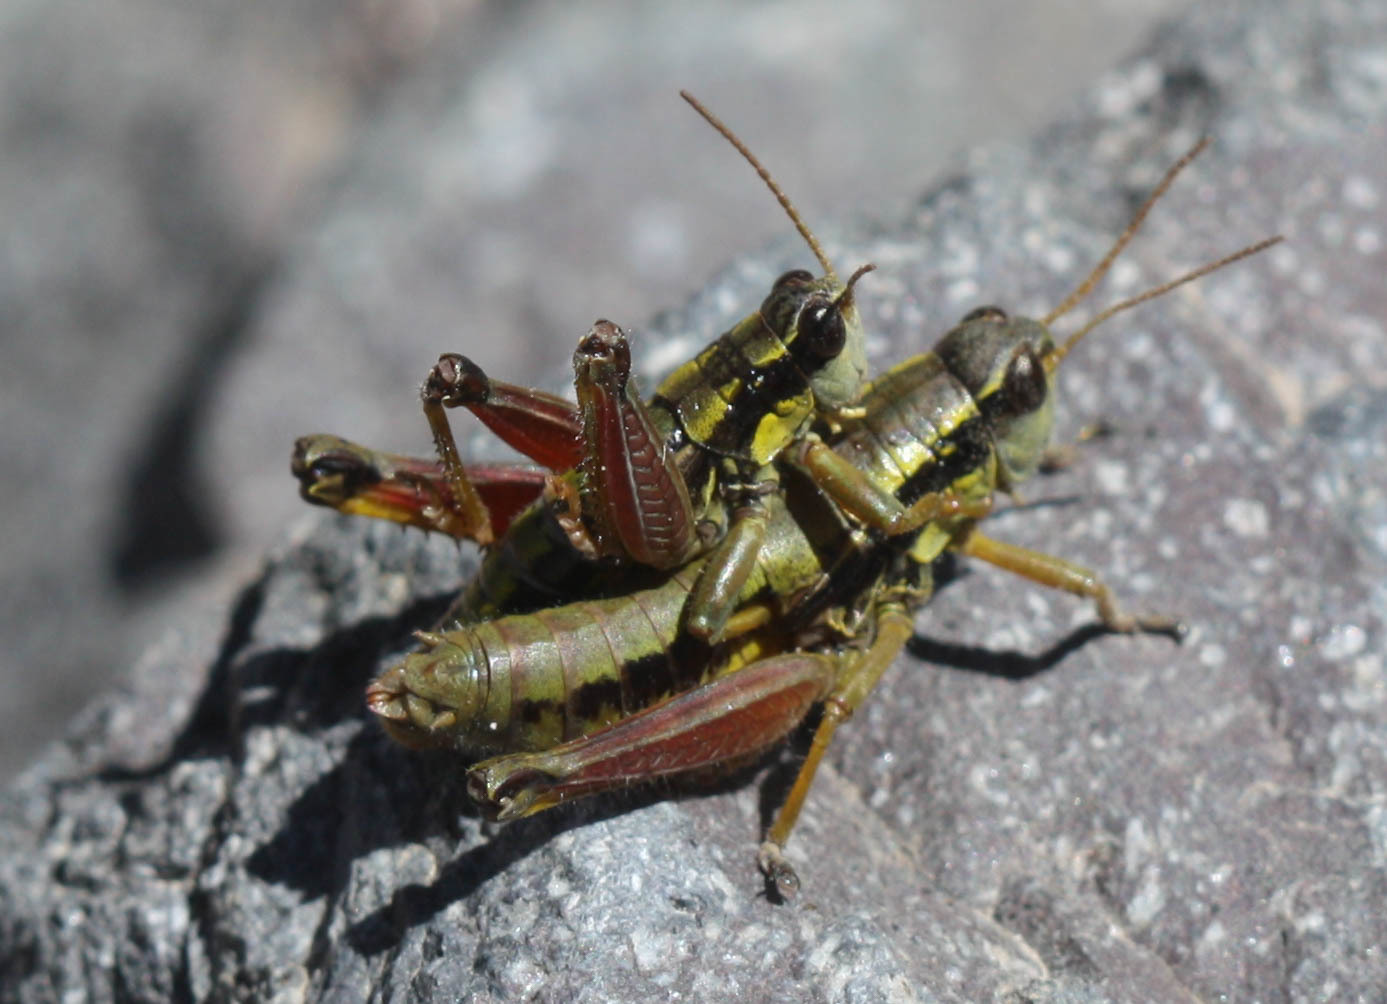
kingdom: Animalia
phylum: Arthropoda
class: Insecta
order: Orthoptera
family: Acrididae
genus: Prumnacris
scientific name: Prumnacris rainierensis
